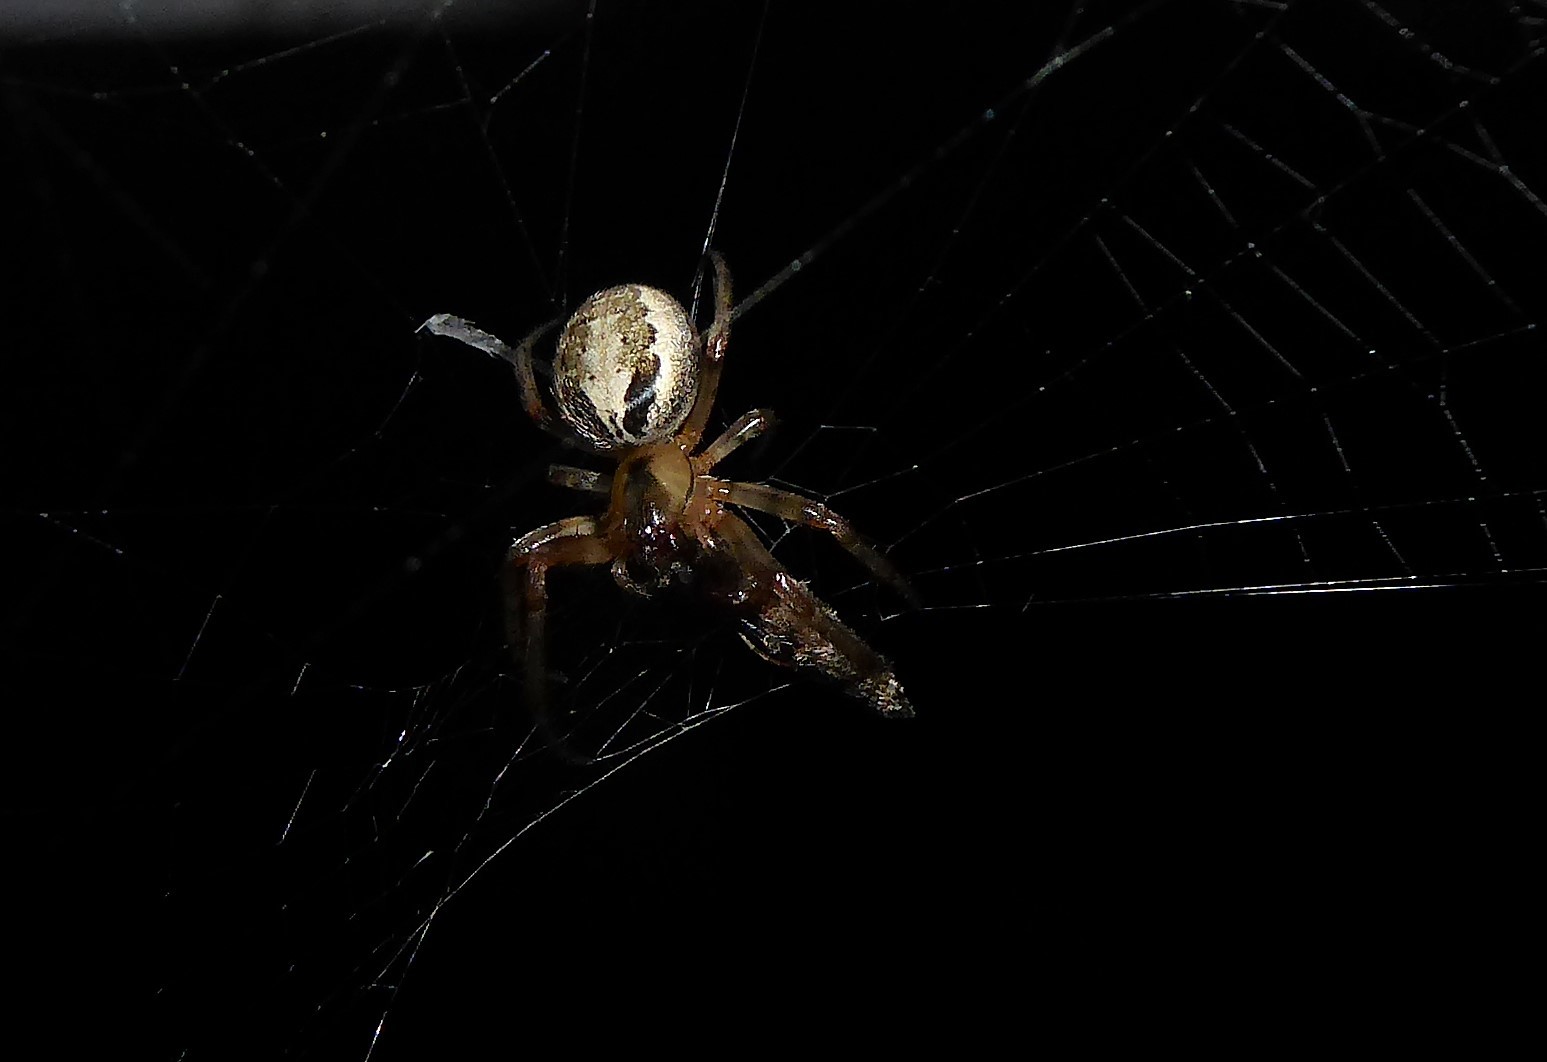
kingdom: Animalia
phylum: Arthropoda
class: Arachnida
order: Araneae
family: Araneidae
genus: Zygiella
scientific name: Zygiella x-notata
